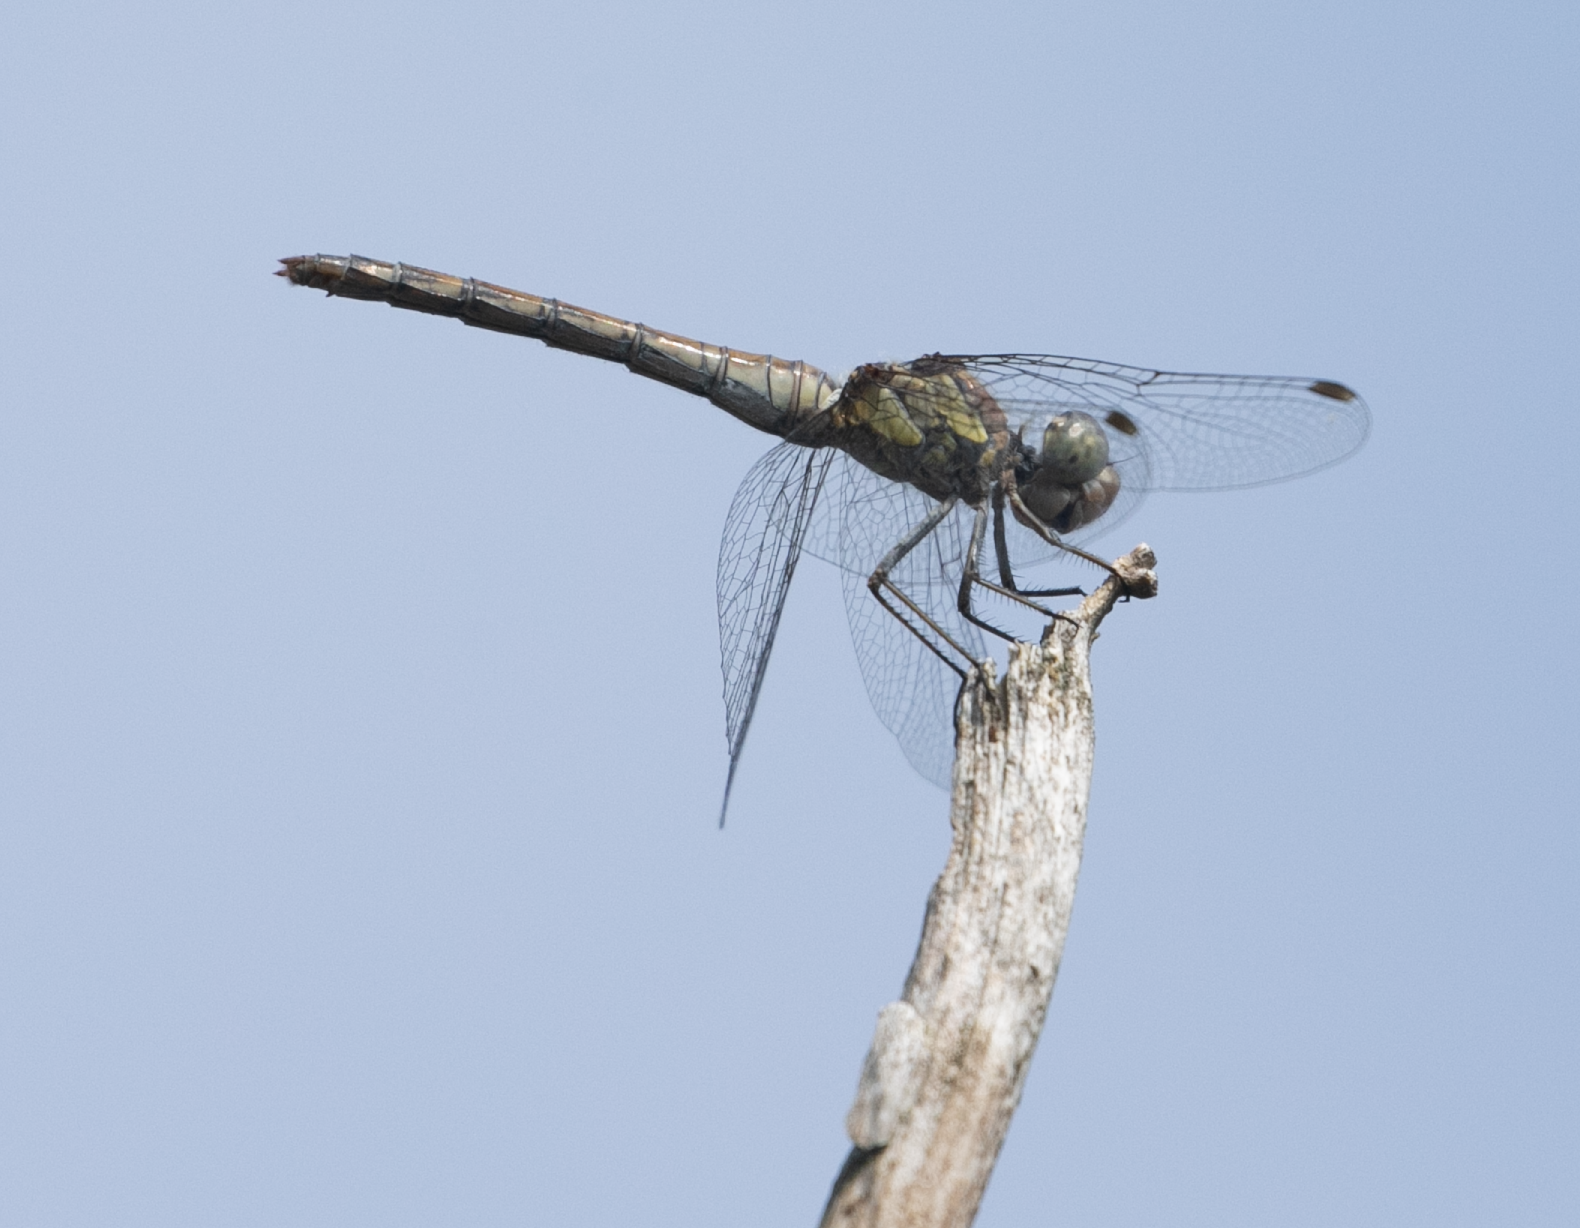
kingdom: Animalia
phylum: Arthropoda
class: Insecta
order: Odonata
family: Libellulidae
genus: Sympetrum
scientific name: Sympetrum striolatum
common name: Common darter
